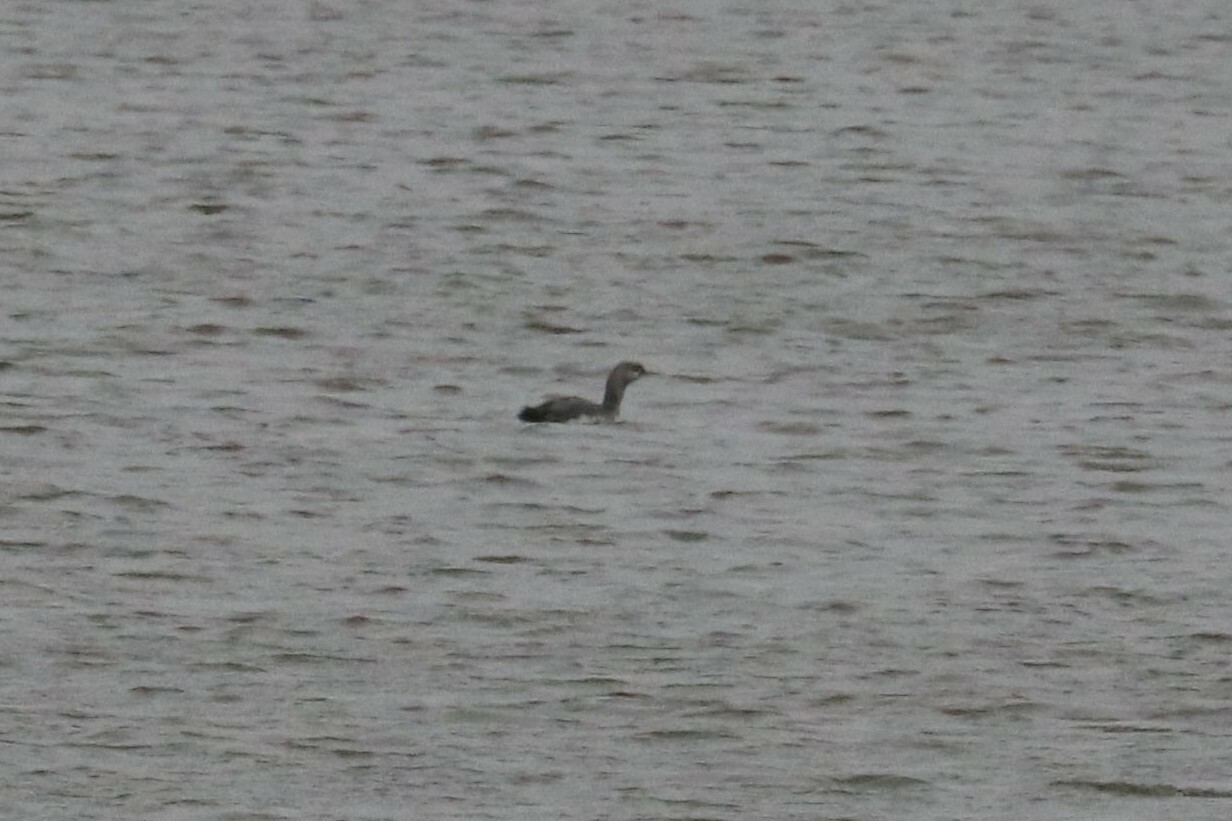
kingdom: Animalia
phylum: Chordata
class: Aves
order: Gaviiformes
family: Gaviidae
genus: Gavia
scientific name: Gavia stellata
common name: Red-throated loon
